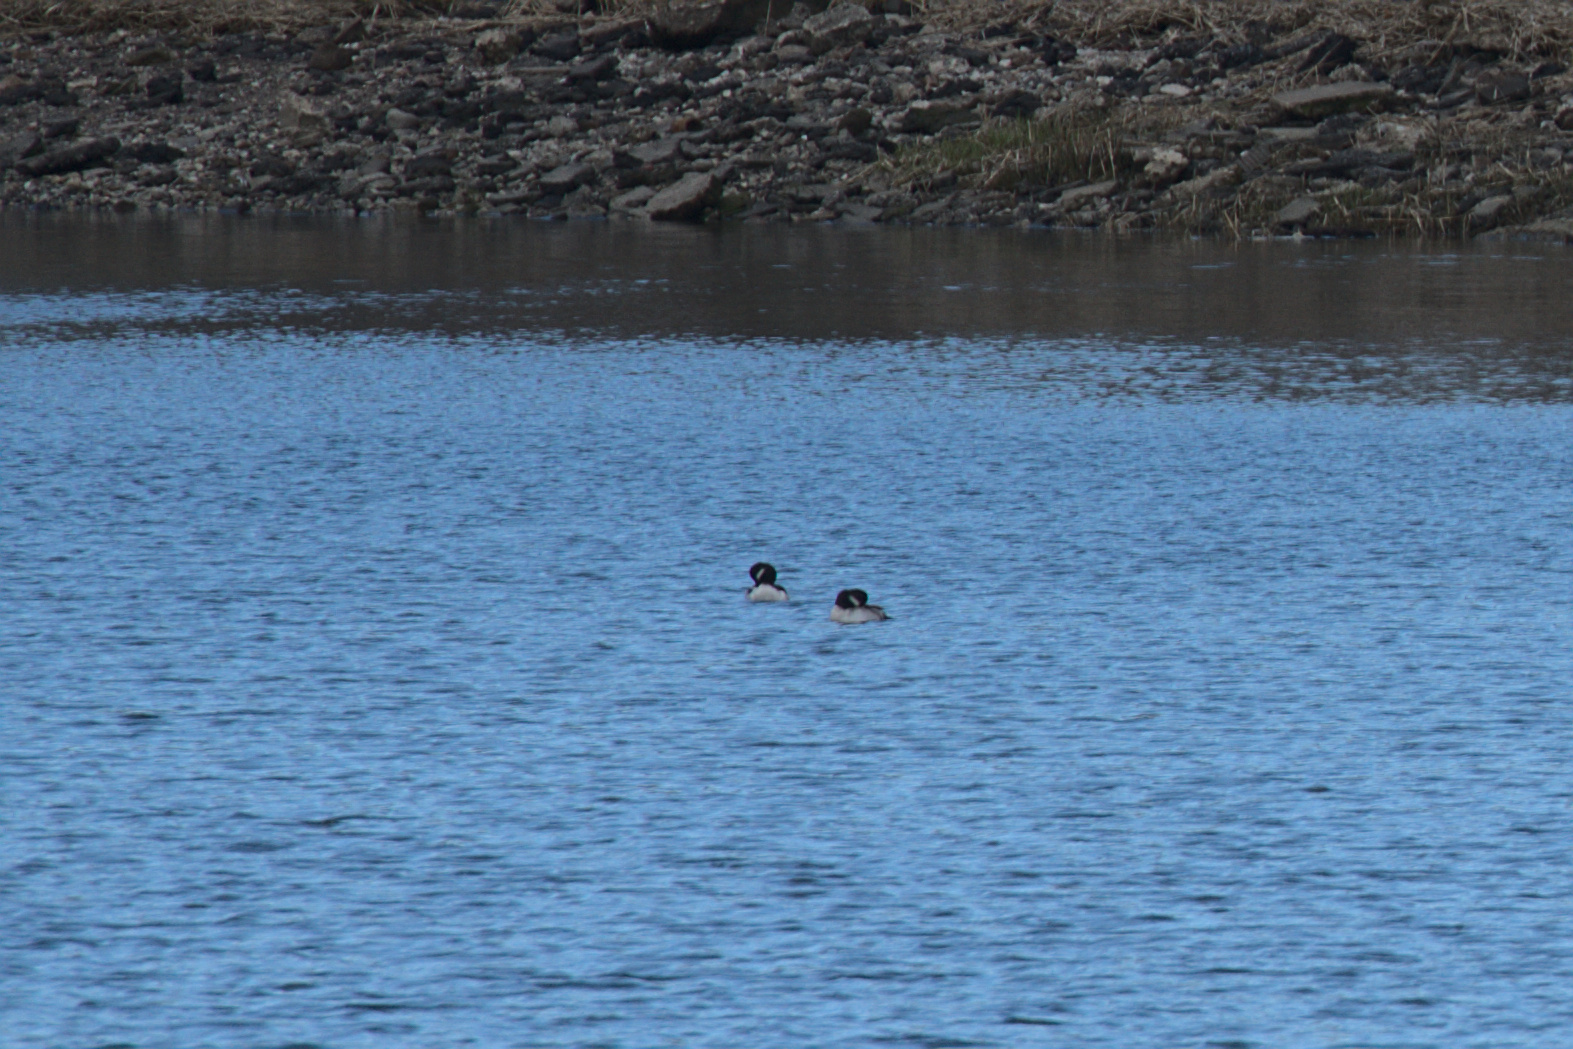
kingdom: Animalia
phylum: Chordata
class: Aves
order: Anseriformes
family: Anatidae
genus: Bucephala
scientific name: Bucephala albeola
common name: Bufflehead
